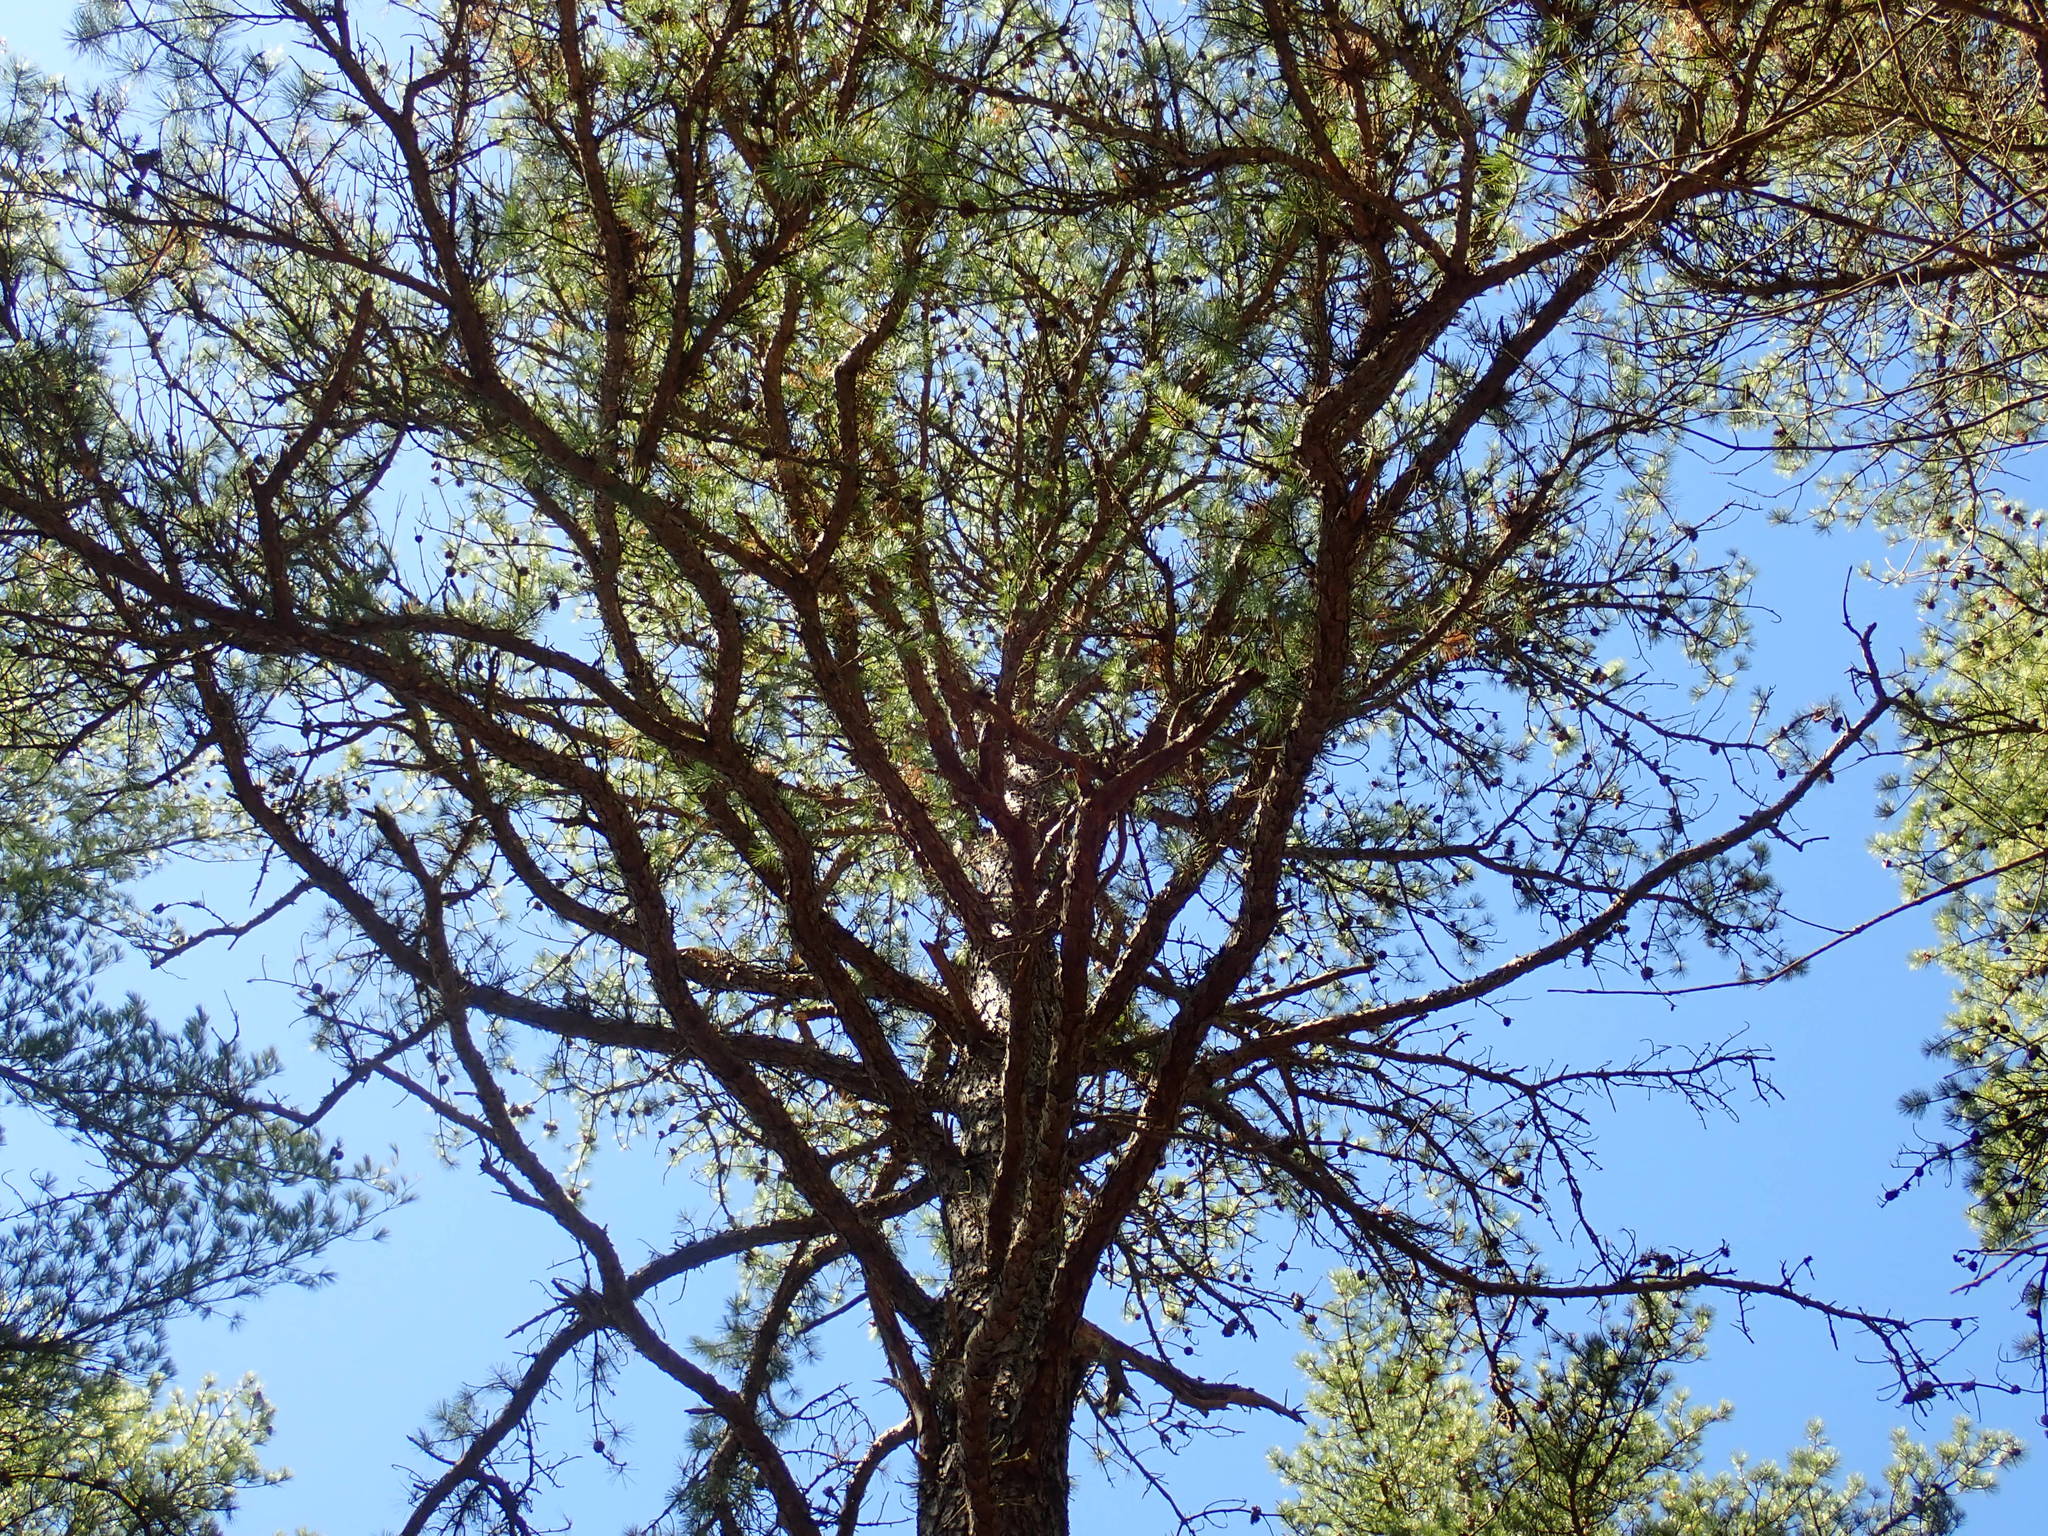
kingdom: Plantae
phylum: Tracheophyta
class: Pinopsida
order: Pinales
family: Pinaceae
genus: Pinus
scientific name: Pinus rigida
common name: Pitch pine
